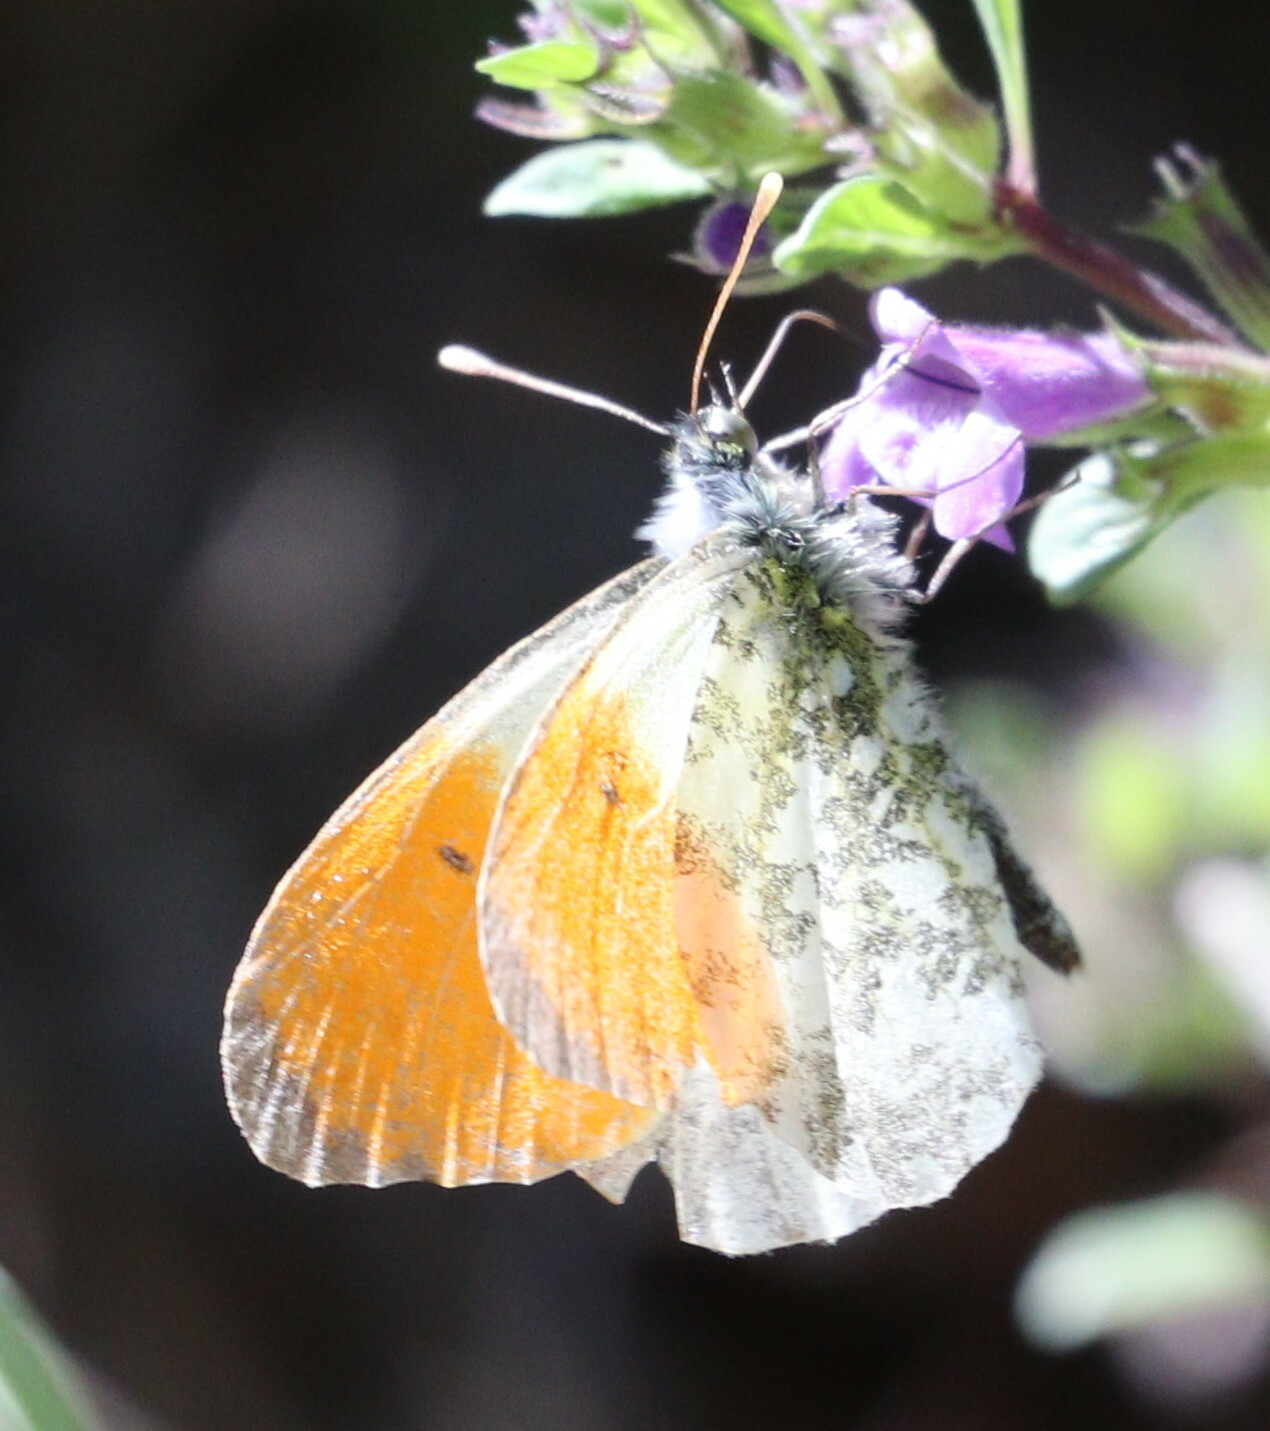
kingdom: Animalia
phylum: Arthropoda
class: Insecta
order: Lepidoptera
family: Pieridae
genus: Anthocharis
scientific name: Anthocharis cardamines
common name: Orange-tip
